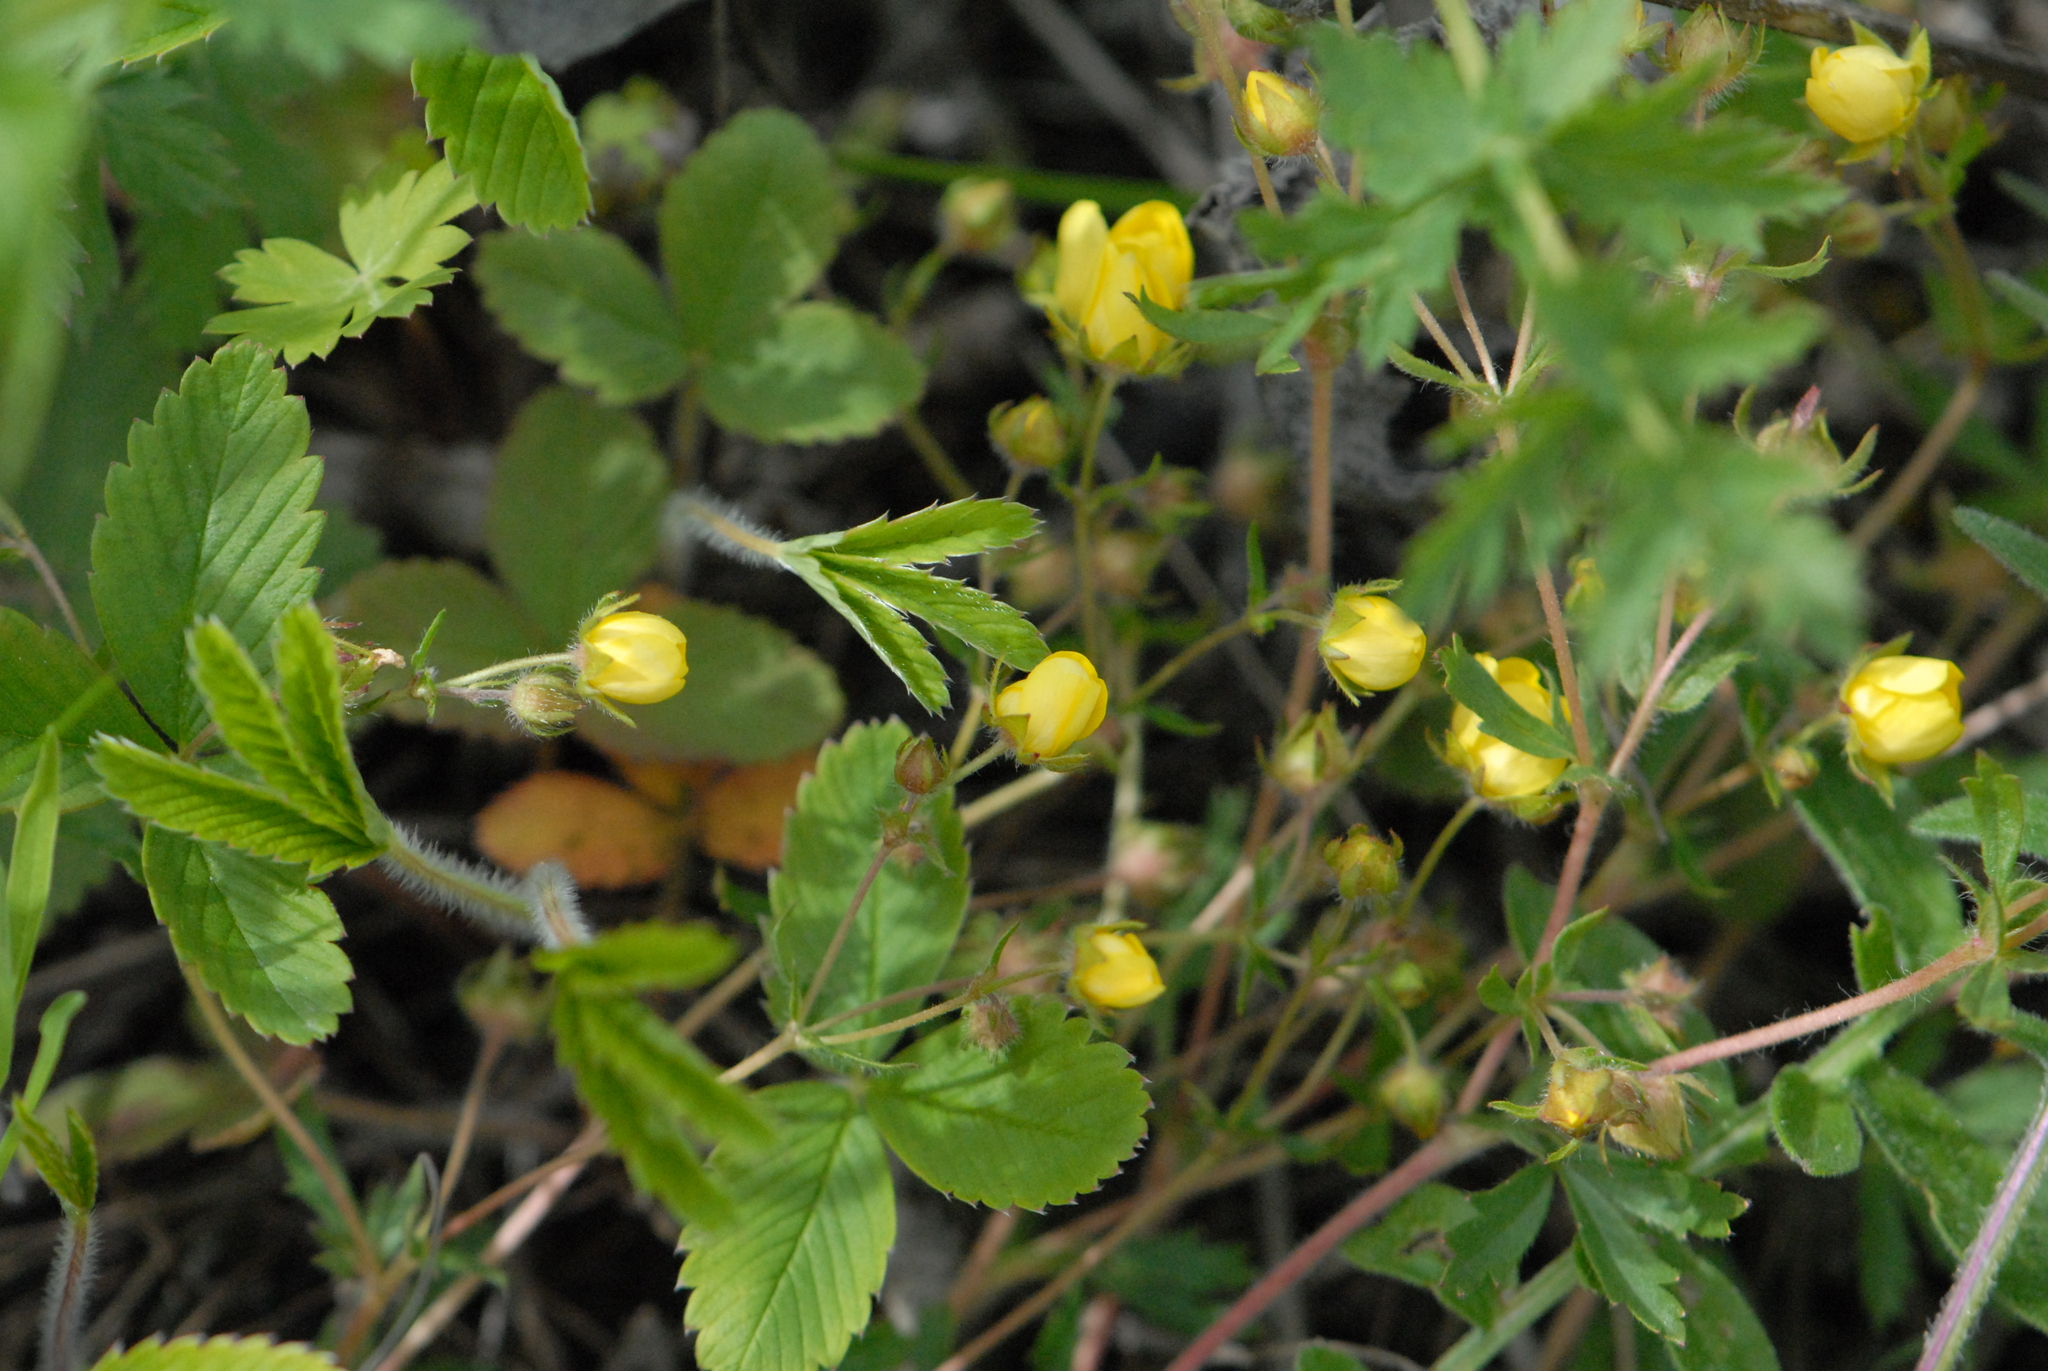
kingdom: Plantae
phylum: Tracheophyta
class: Magnoliopsida
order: Rosales
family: Rosaceae
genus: Potentilla
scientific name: Potentilla humifusa
